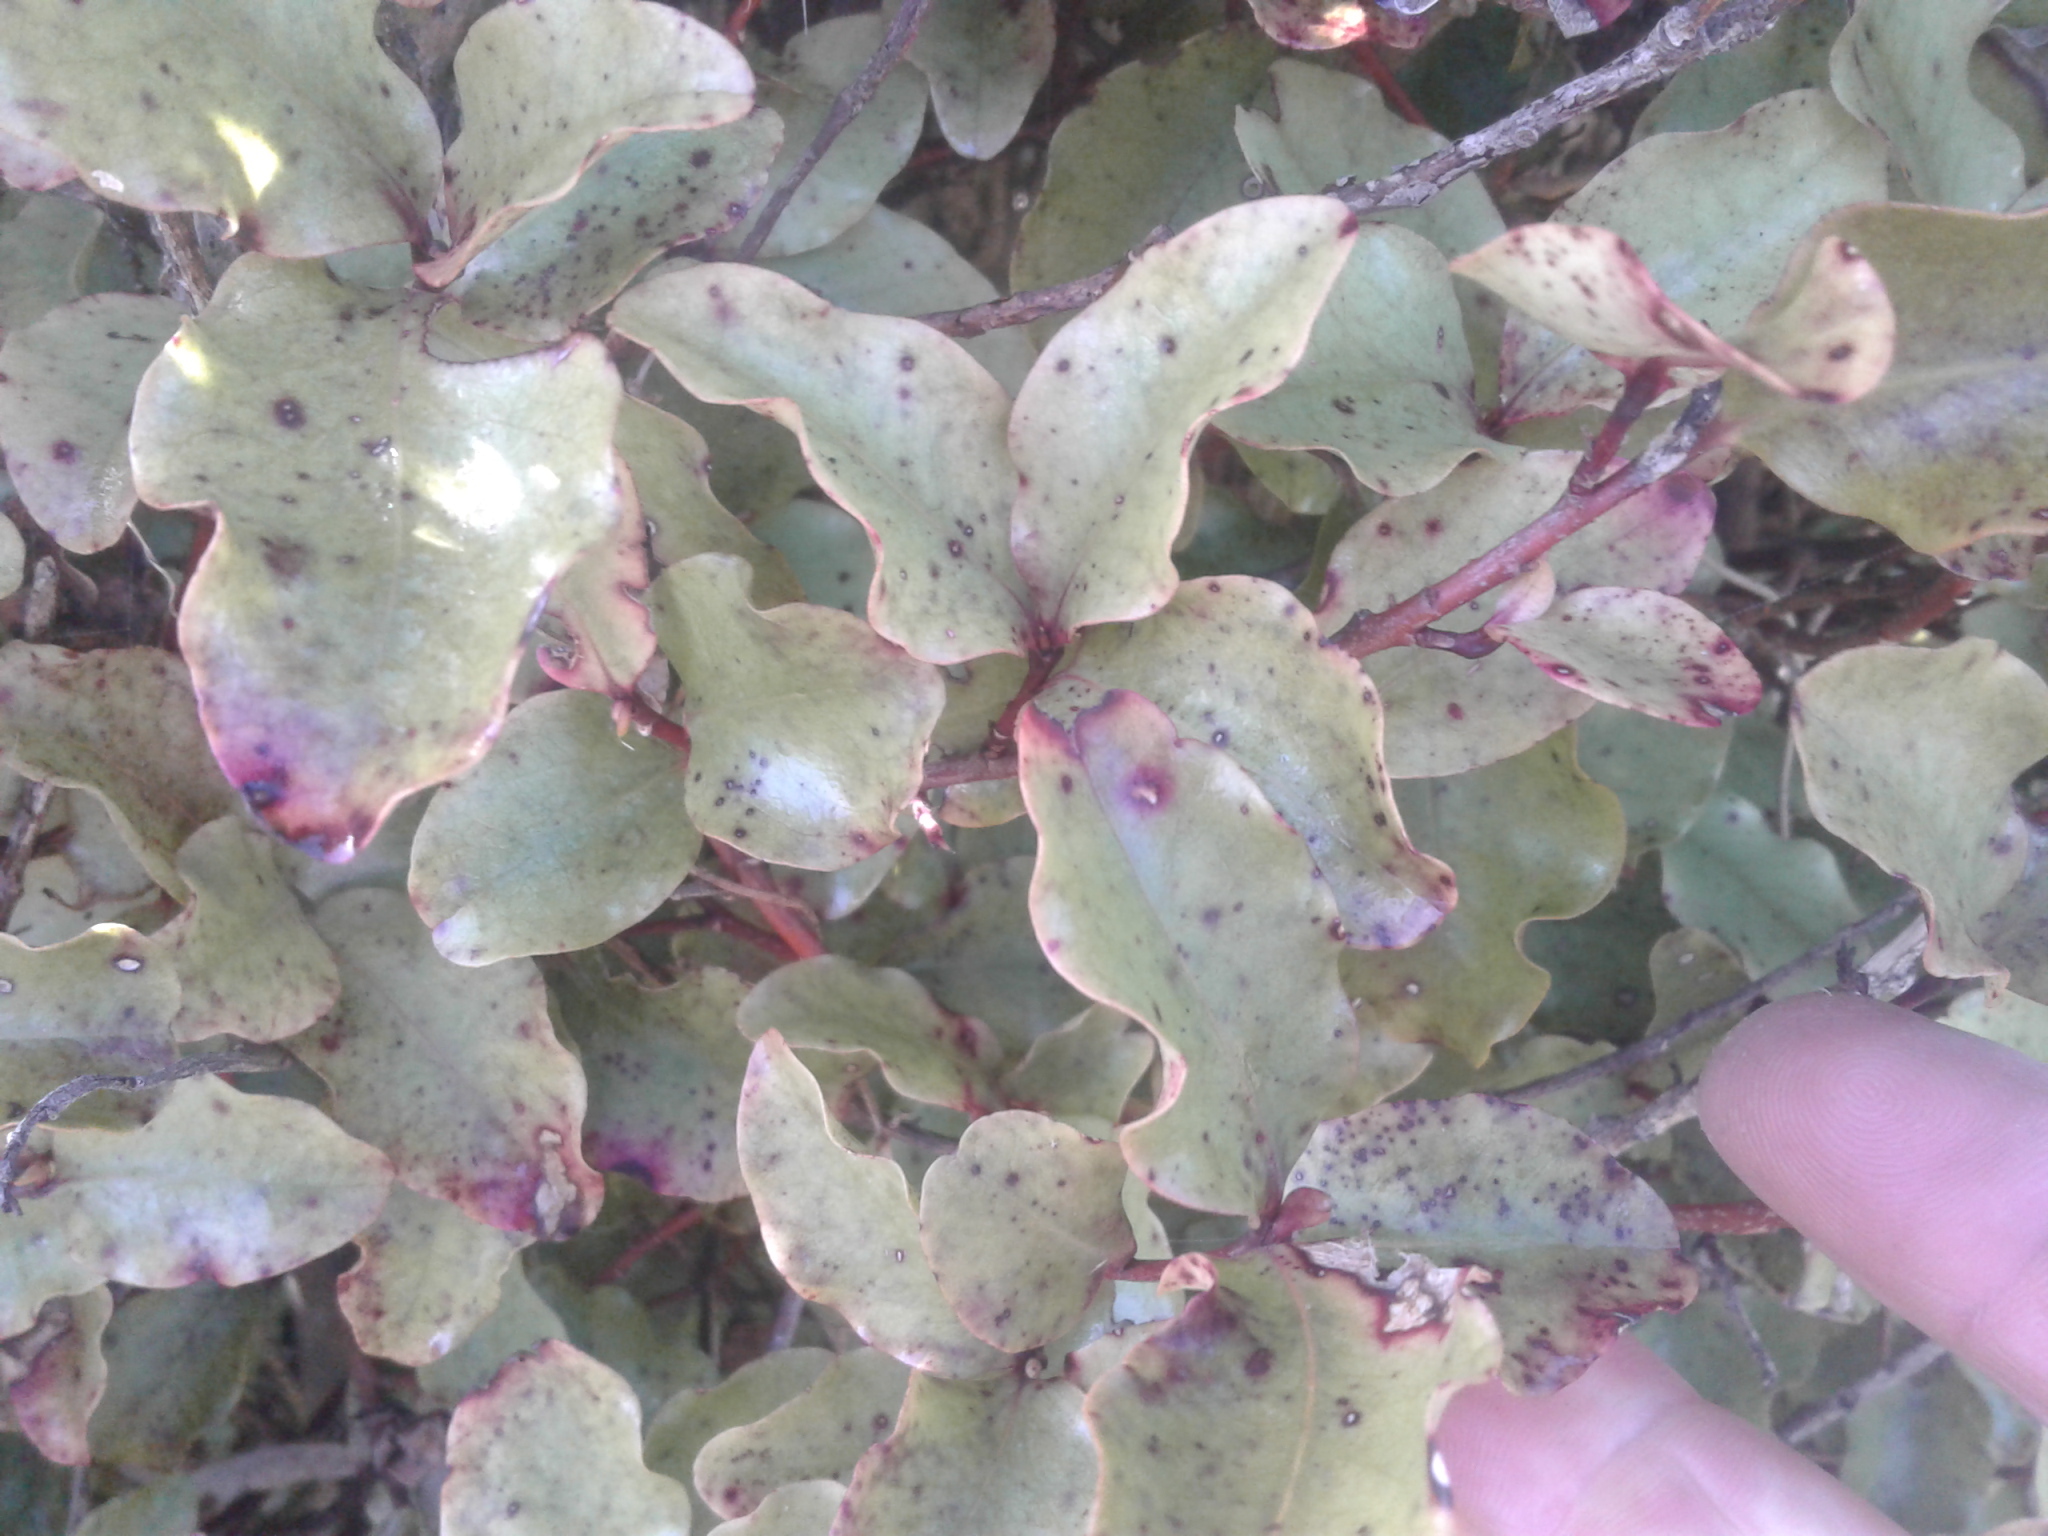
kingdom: Plantae
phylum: Tracheophyta
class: Magnoliopsida
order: Ericales
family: Primulaceae
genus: Myrsine
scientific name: Myrsine australis
